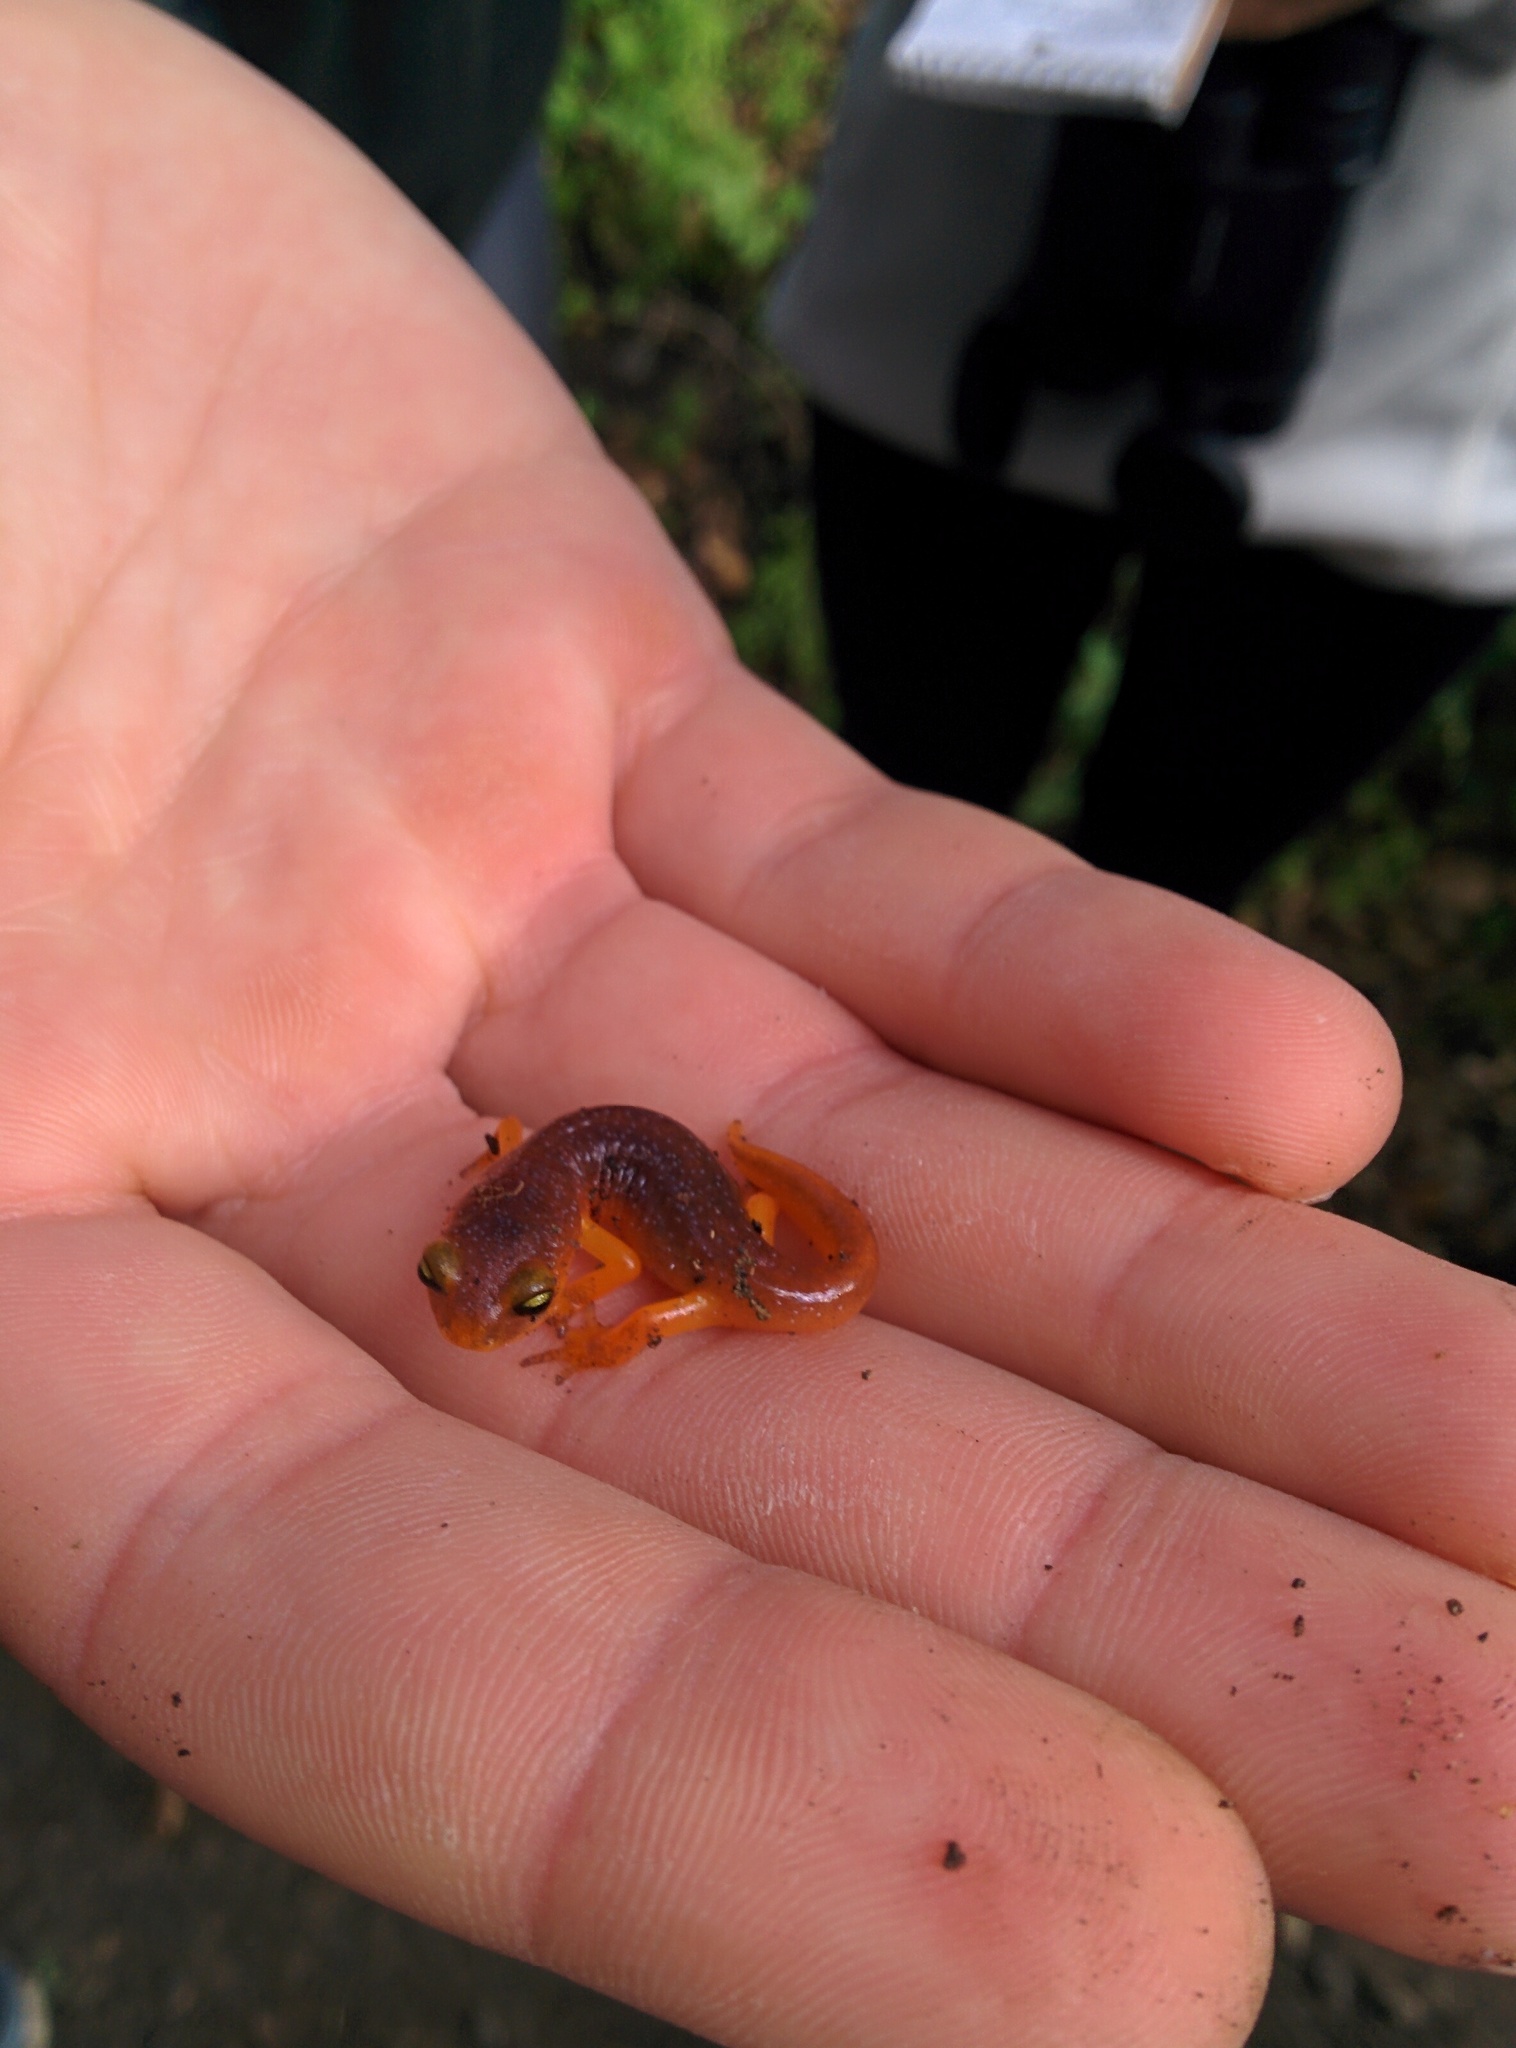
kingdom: Animalia
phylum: Chordata
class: Amphibia
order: Caudata
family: Plethodontidae
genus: Ensatina
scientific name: Ensatina eschscholtzii
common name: Ensatina
